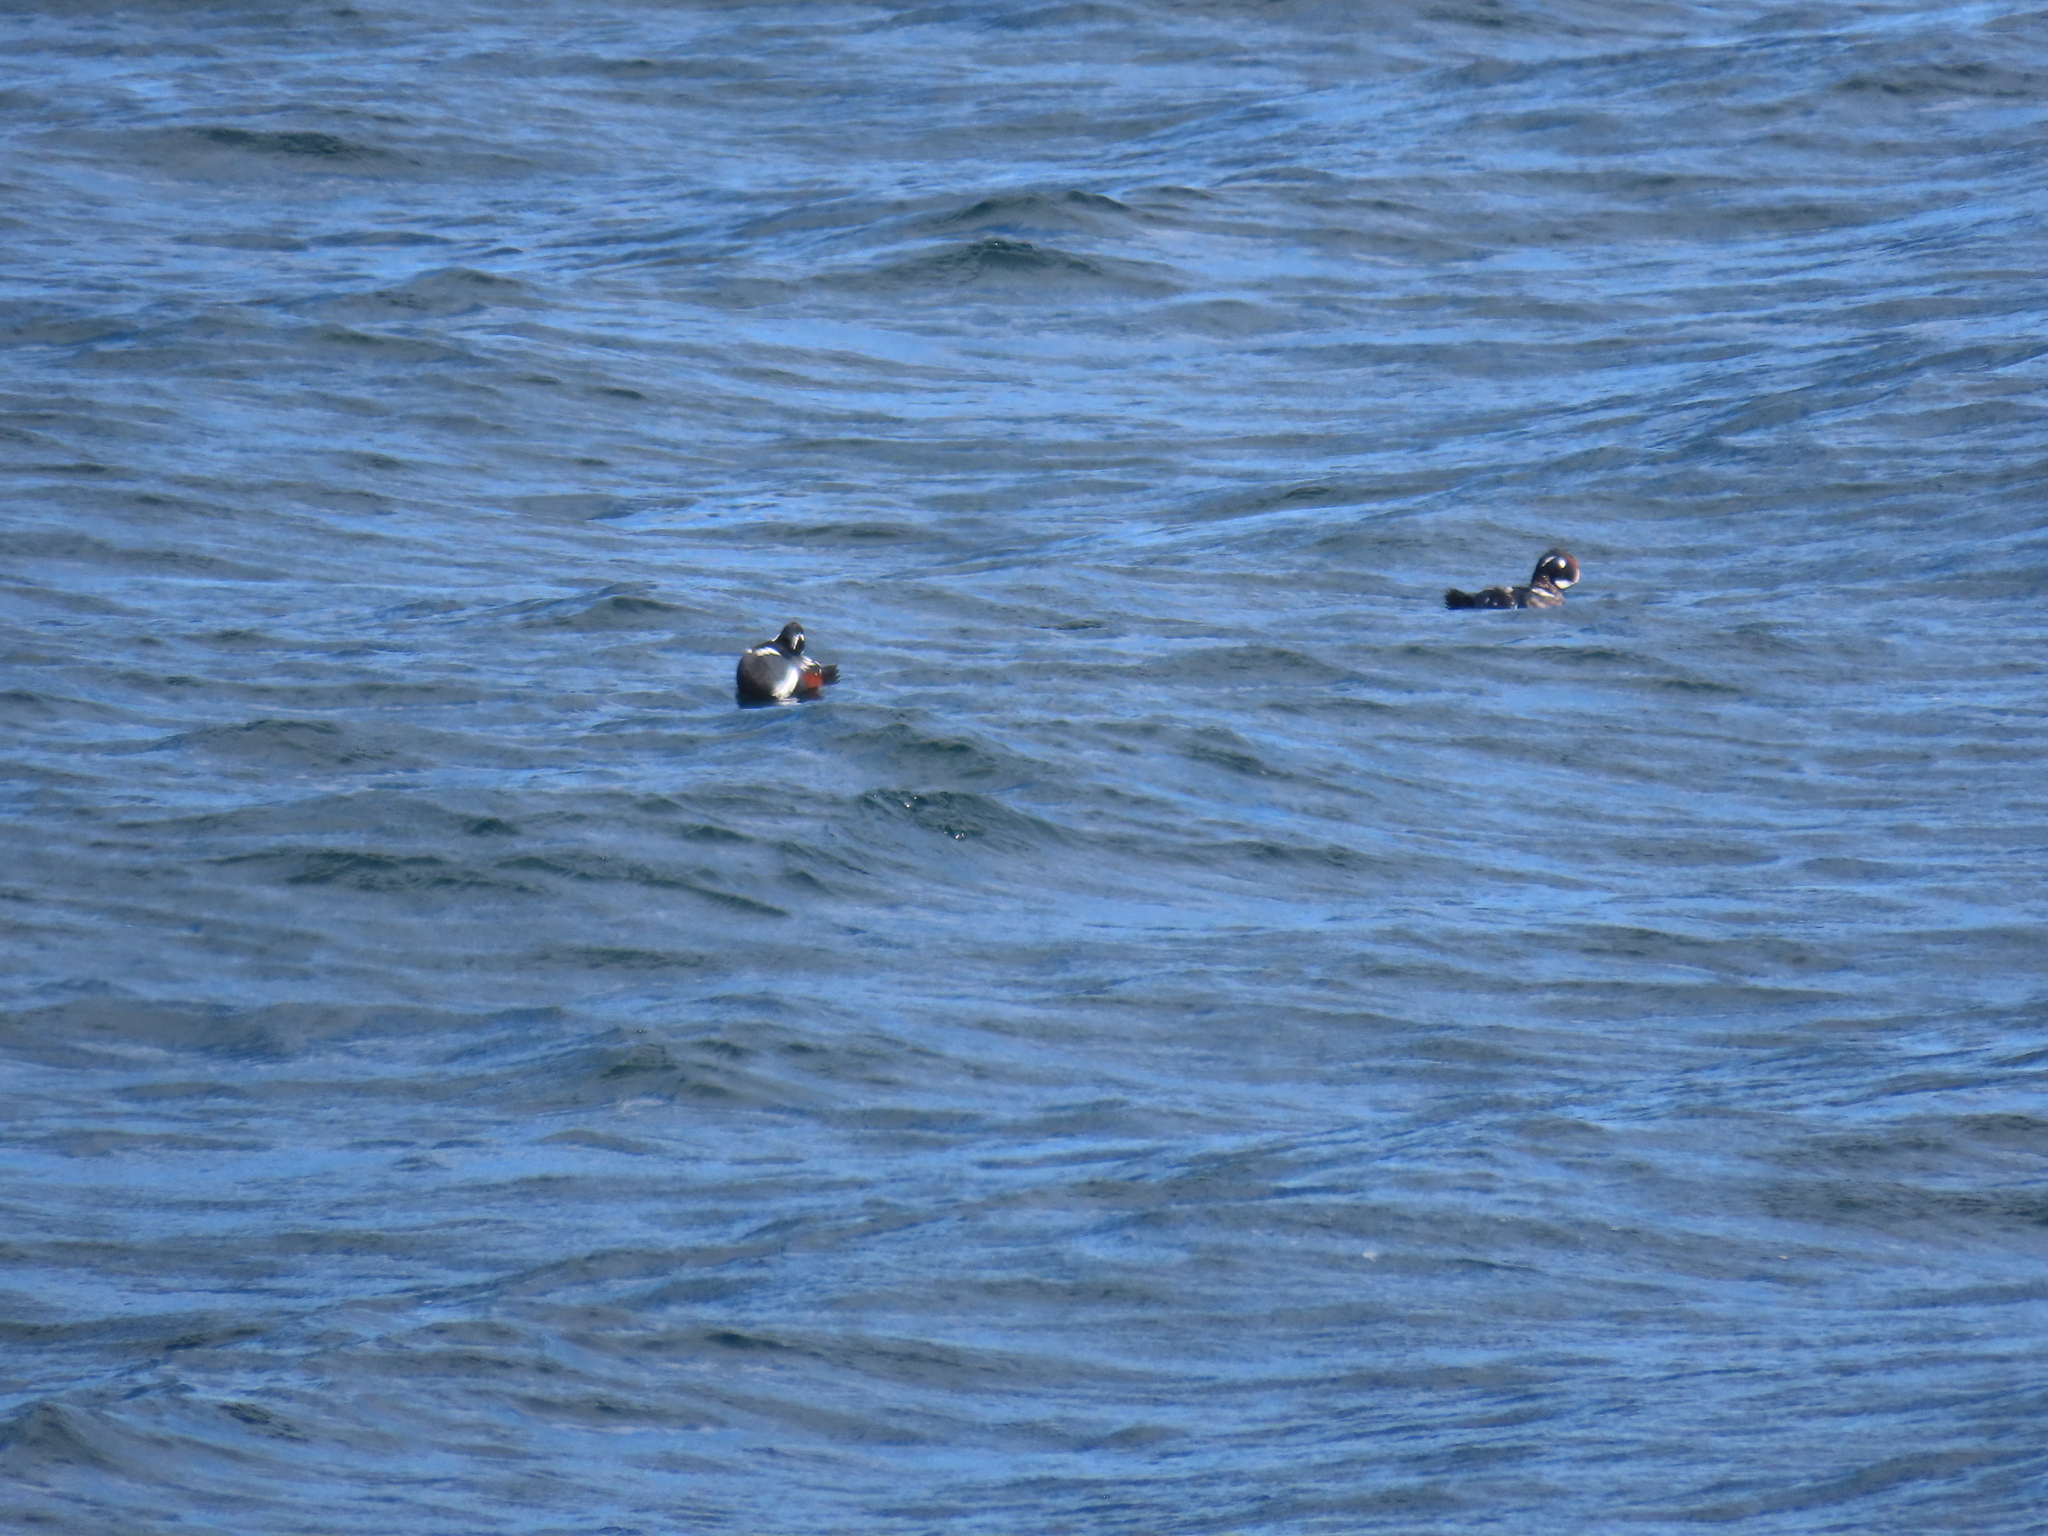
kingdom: Animalia
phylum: Chordata
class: Aves
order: Anseriformes
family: Anatidae
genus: Histrionicus
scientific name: Histrionicus histrionicus
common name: Harlequin duck
